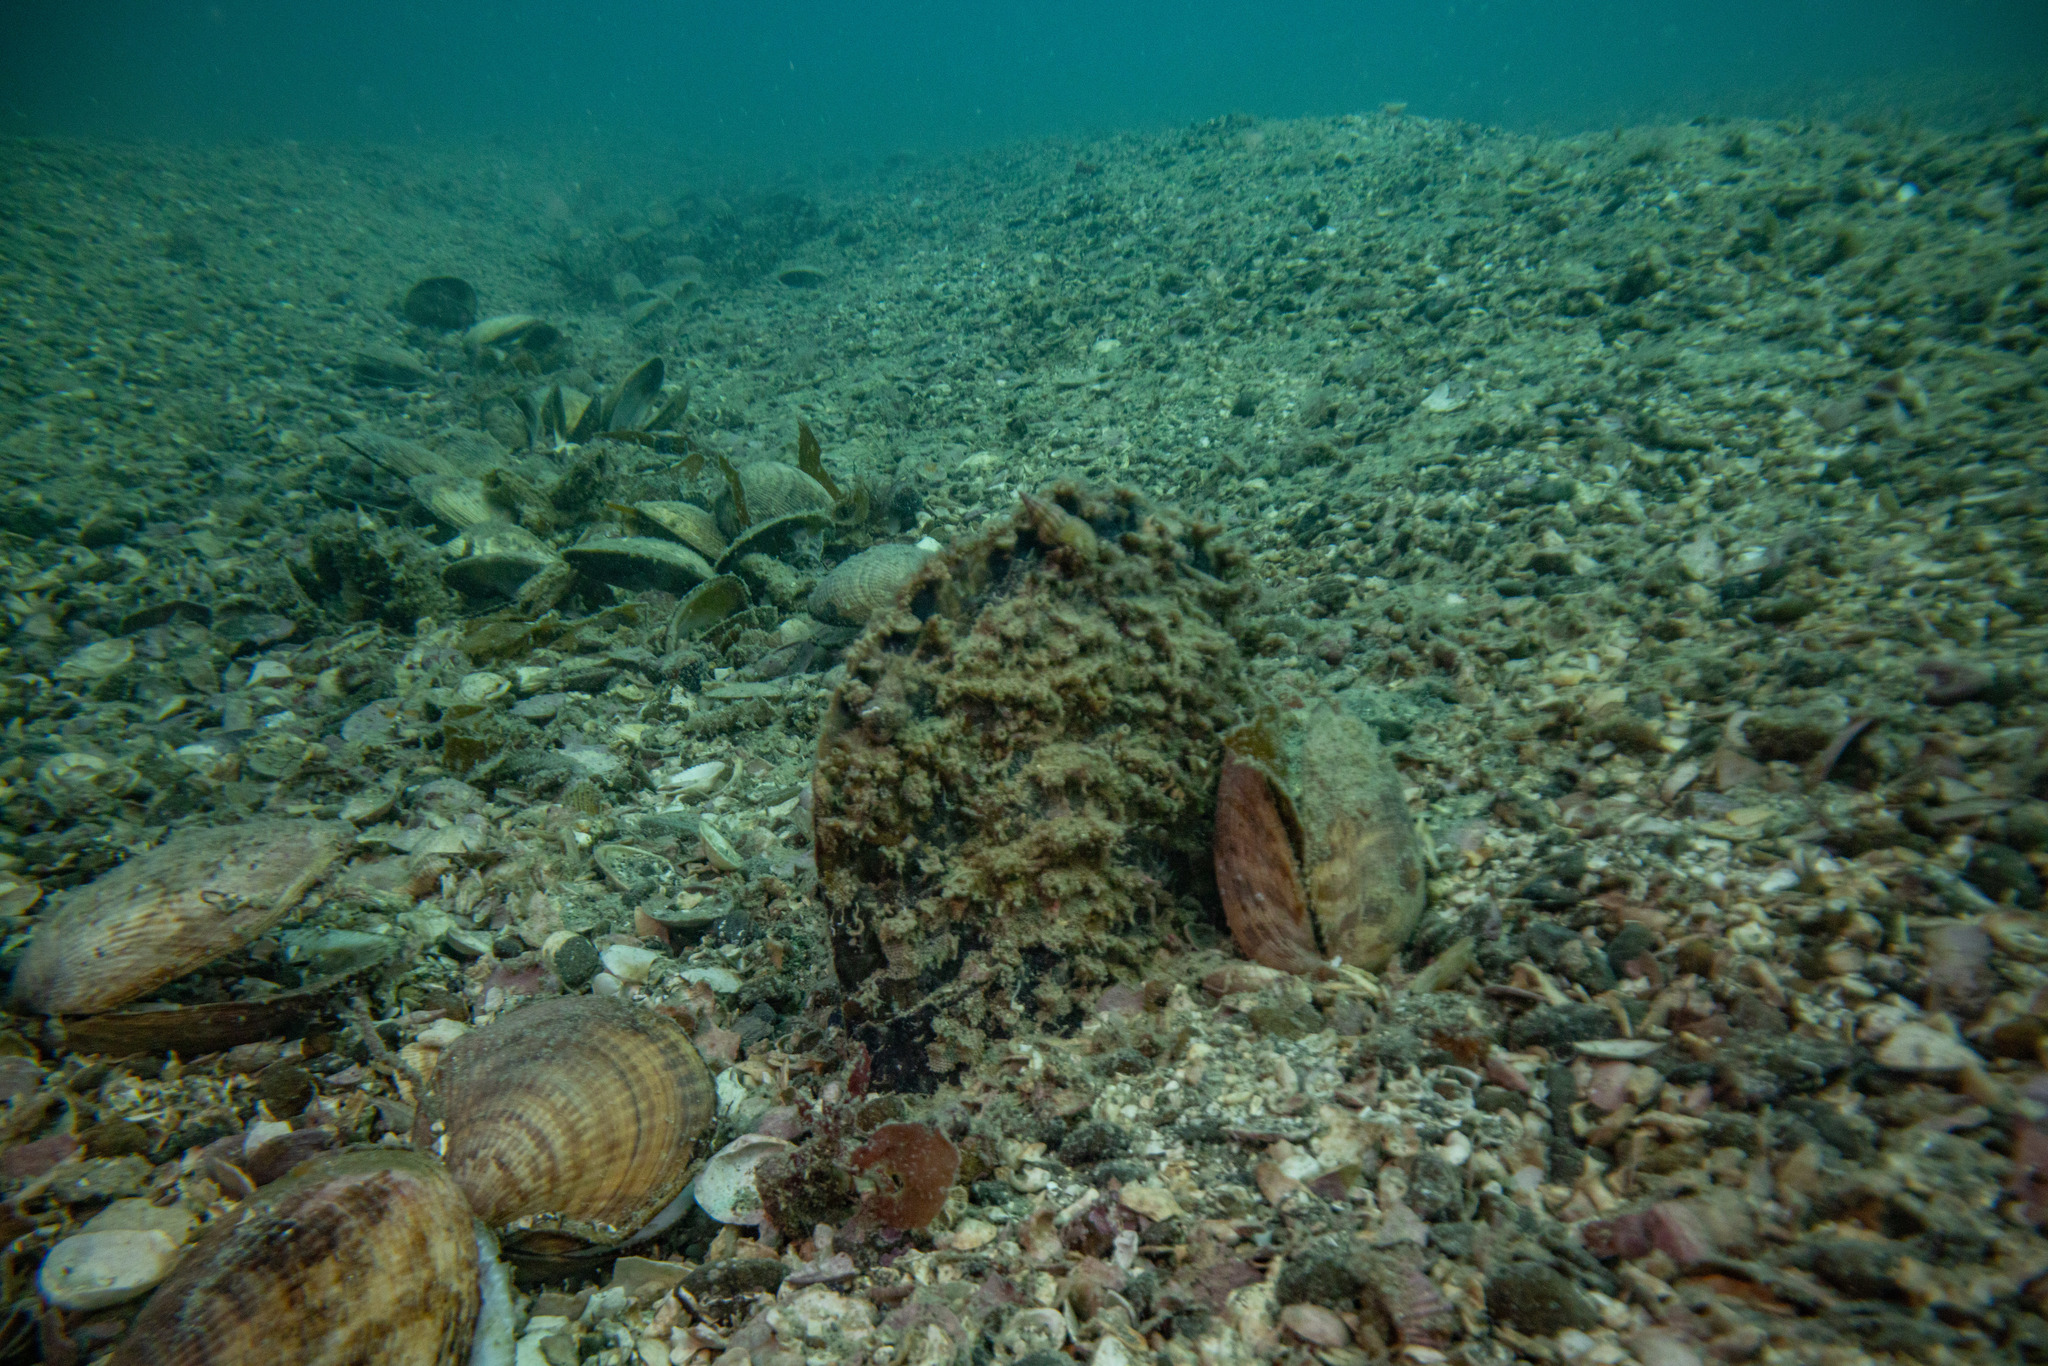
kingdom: Animalia
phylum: Mollusca
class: Bivalvia
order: Ostreida
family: Pinnidae
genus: Atrina
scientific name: Atrina zelandica
